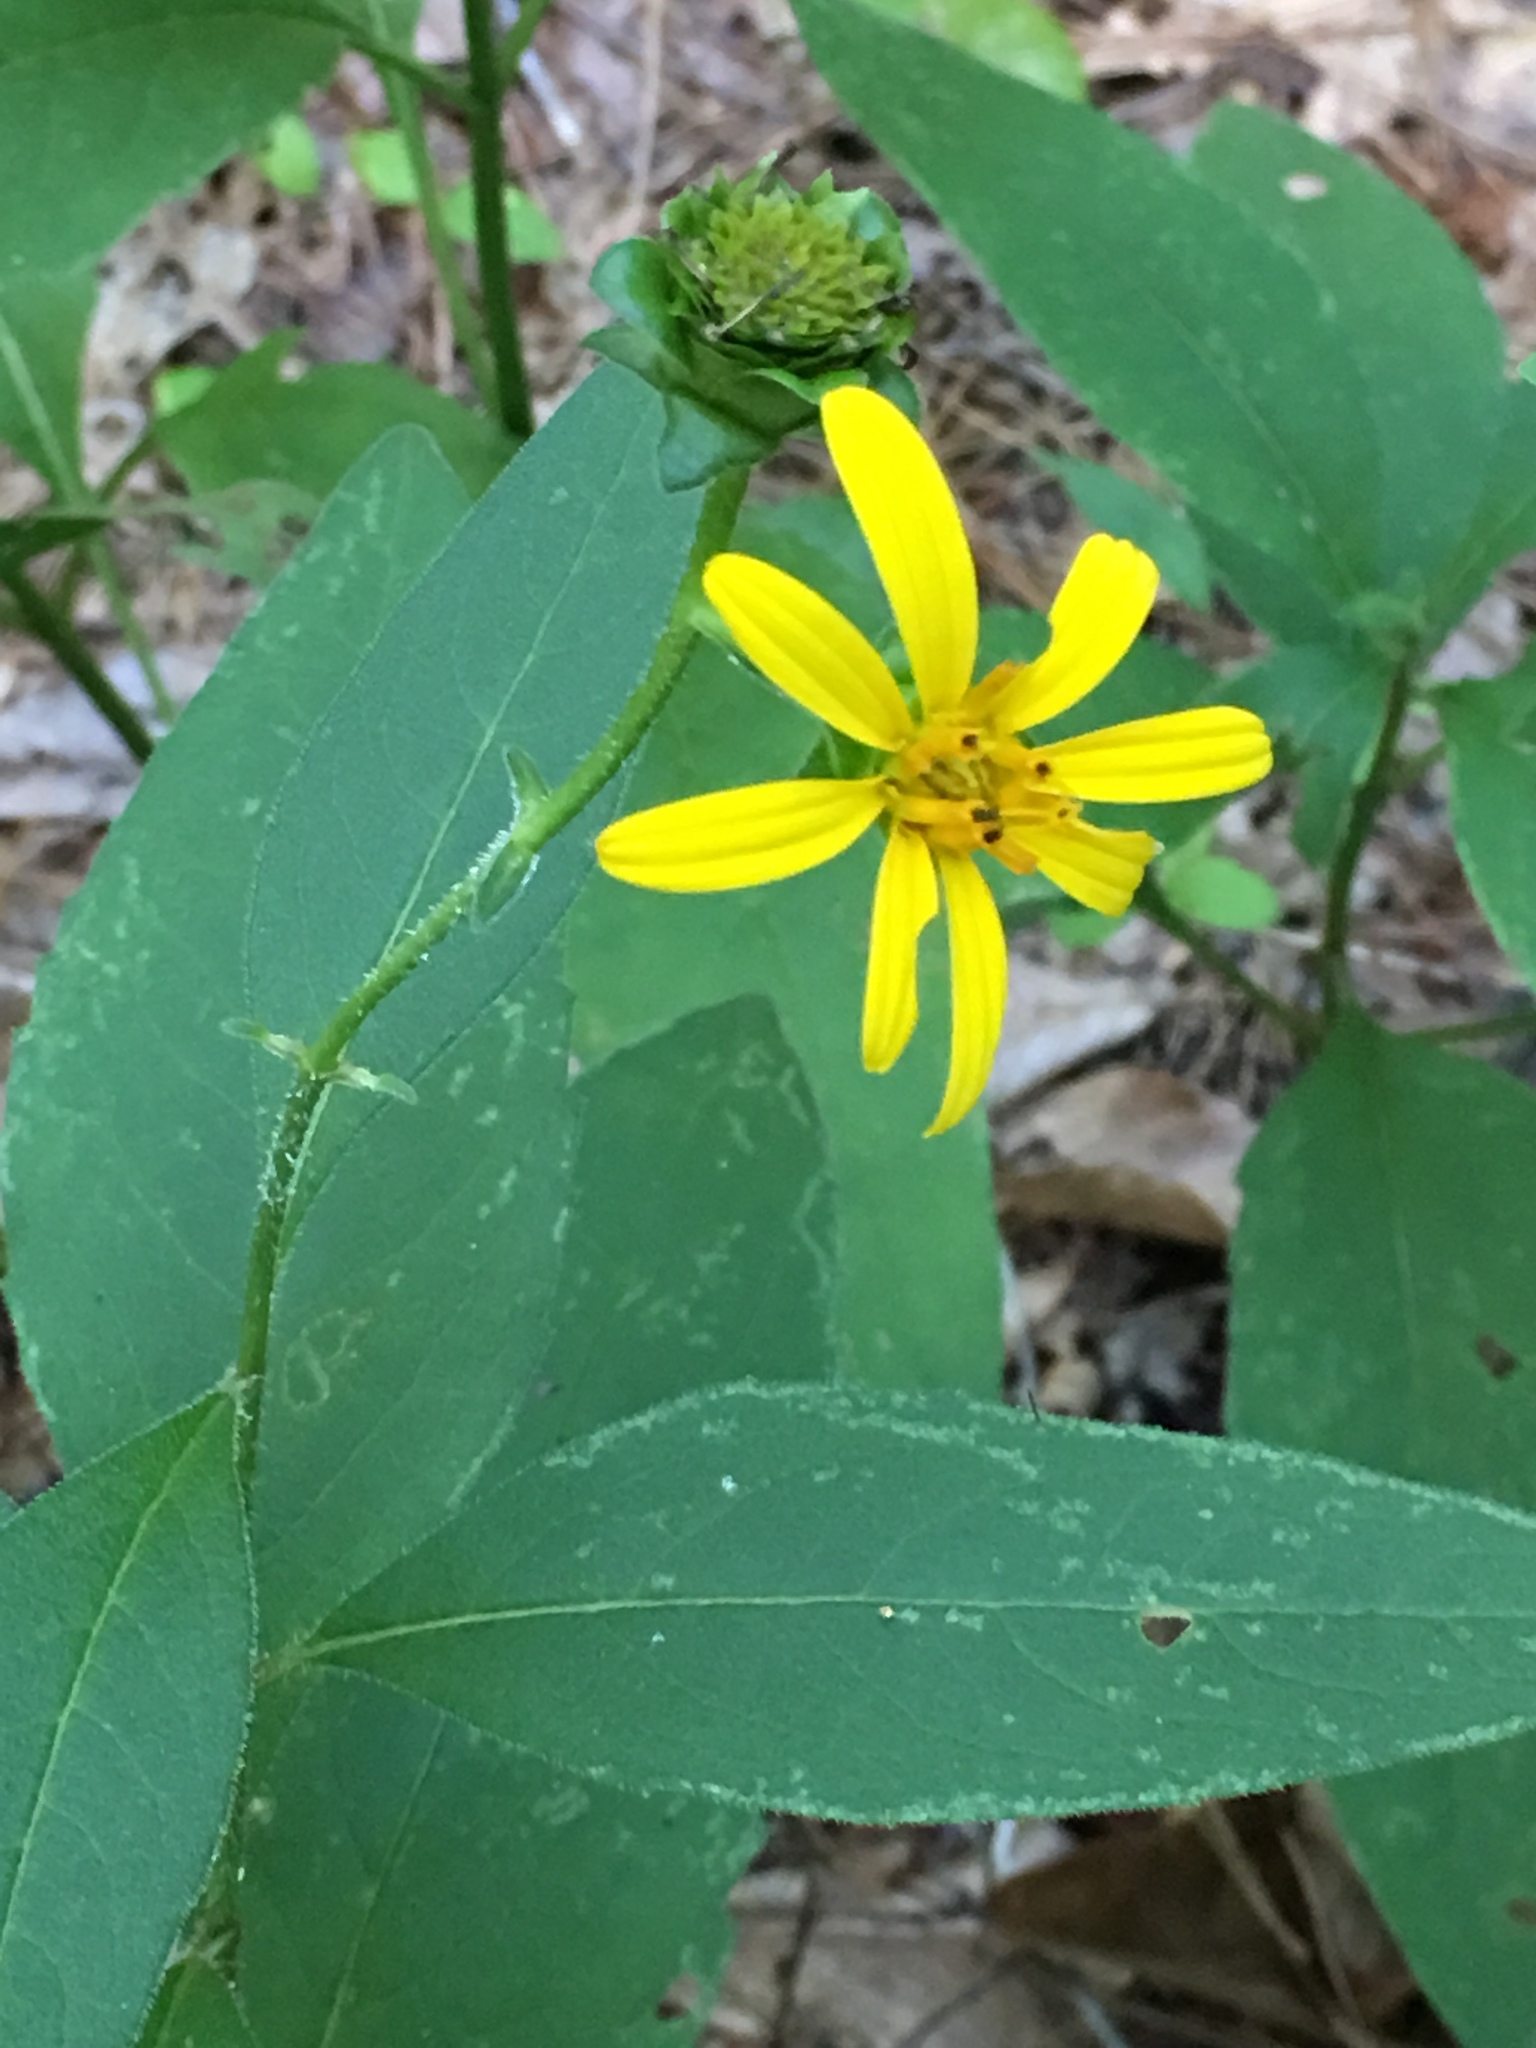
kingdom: Plantae
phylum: Tracheophyta
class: Magnoliopsida
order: Asterales
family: Asteraceae
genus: Silphium
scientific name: Silphium asteriscus
